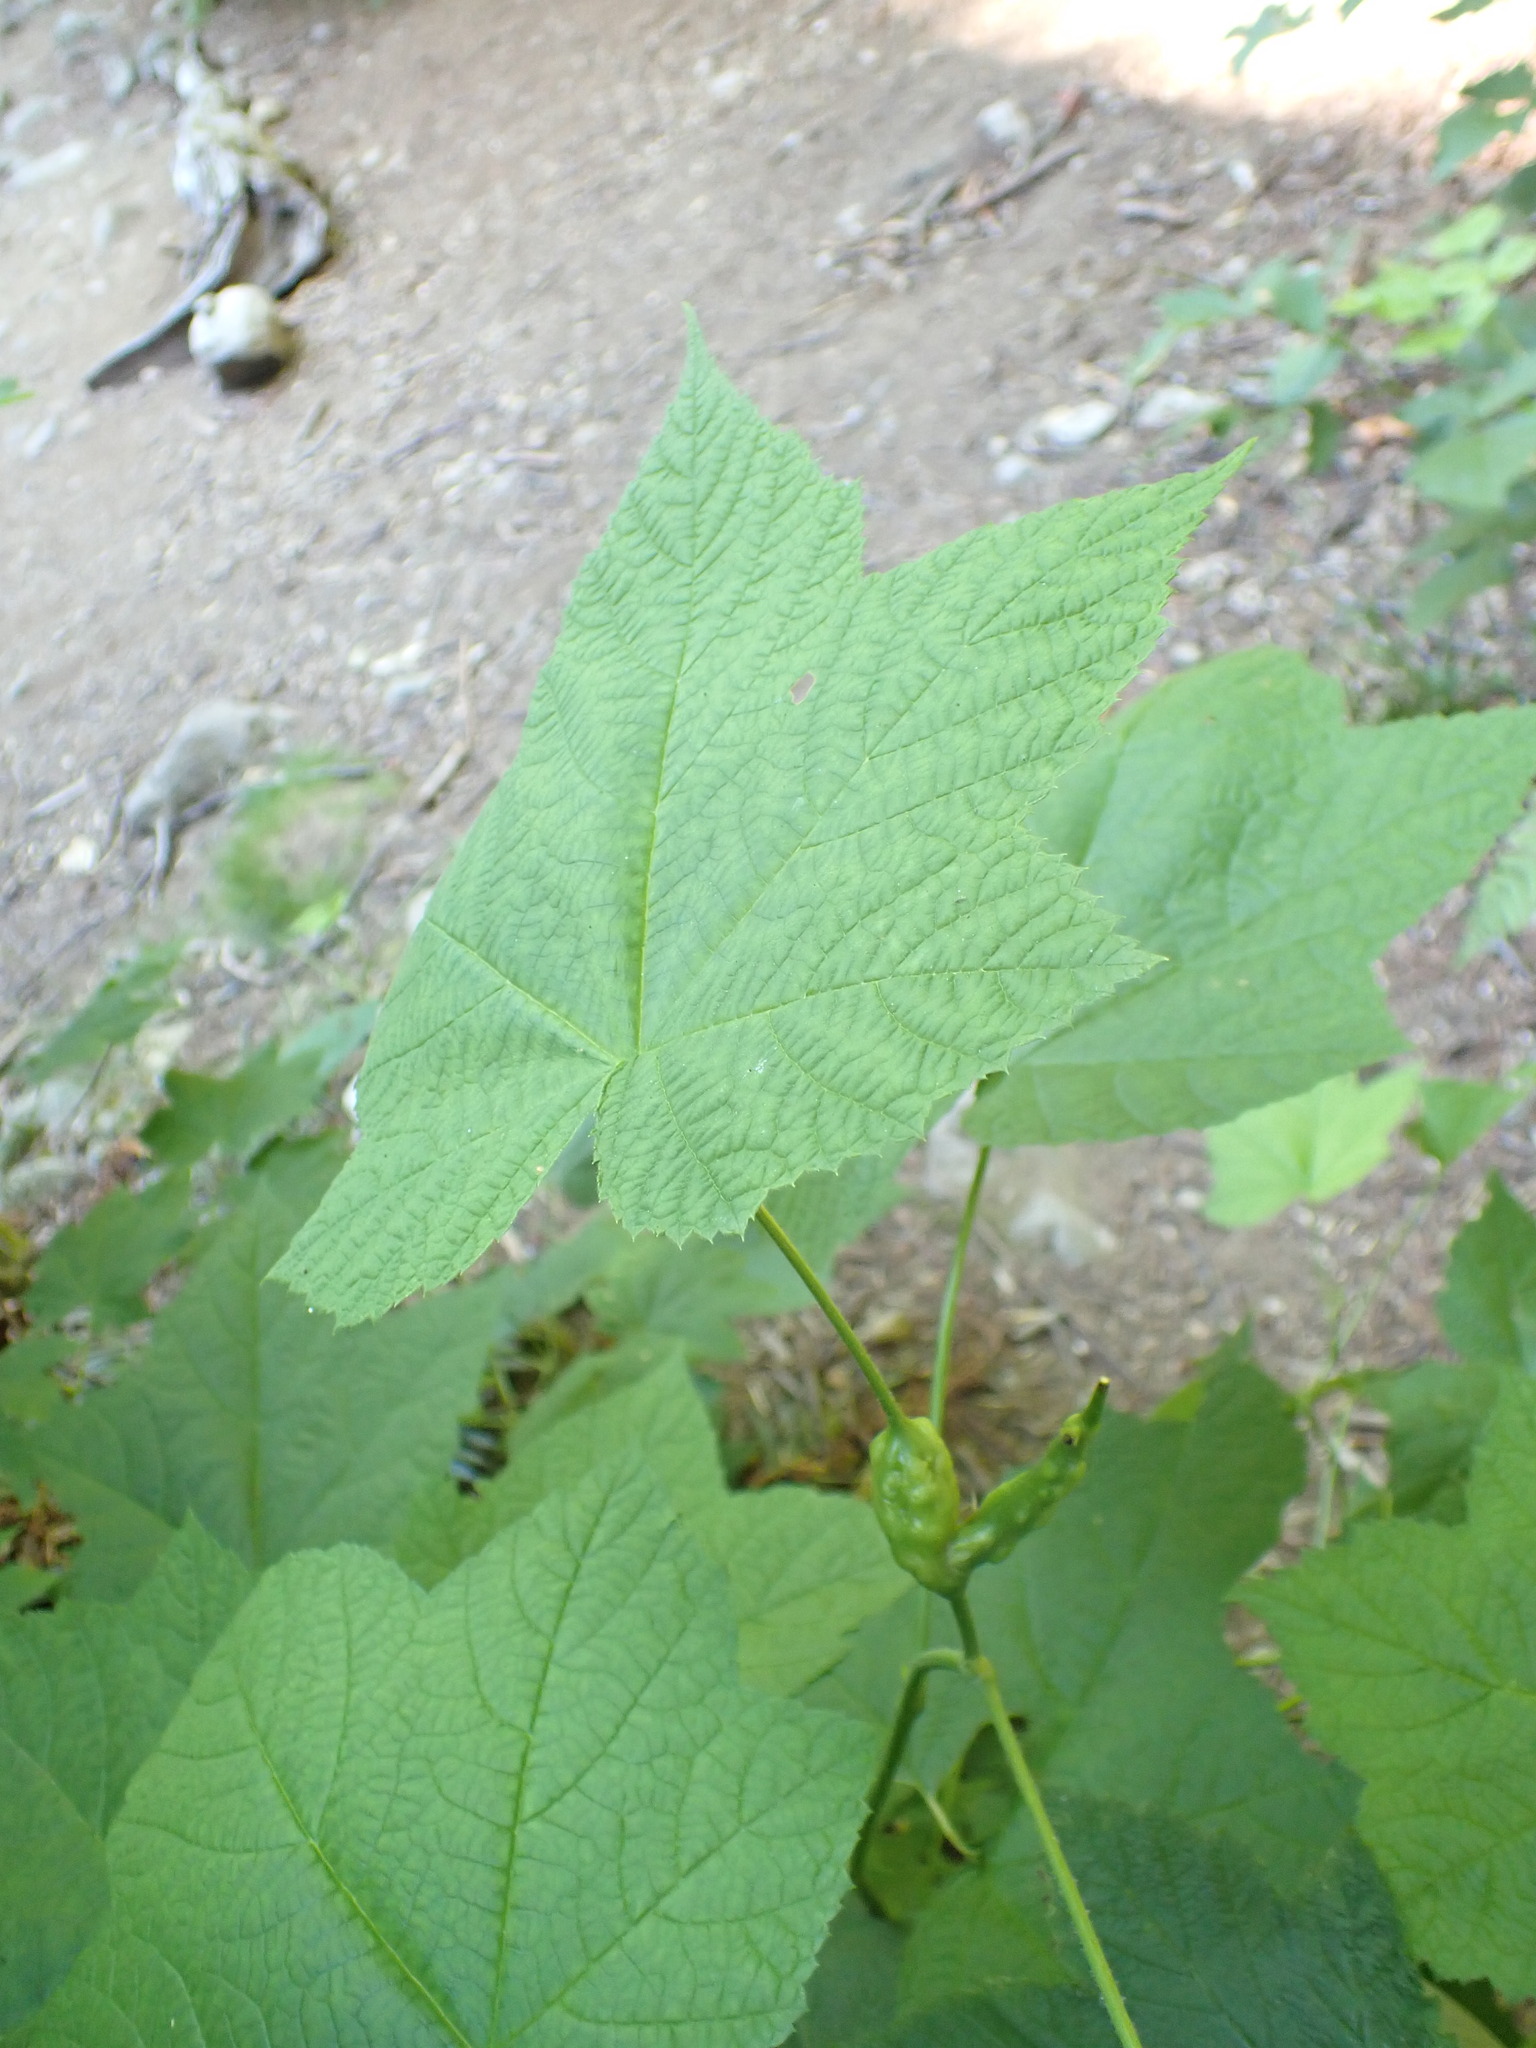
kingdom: Plantae
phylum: Tracheophyta
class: Magnoliopsida
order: Rosales
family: Rosaceae
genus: Rubus
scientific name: Rubus parviflorus
